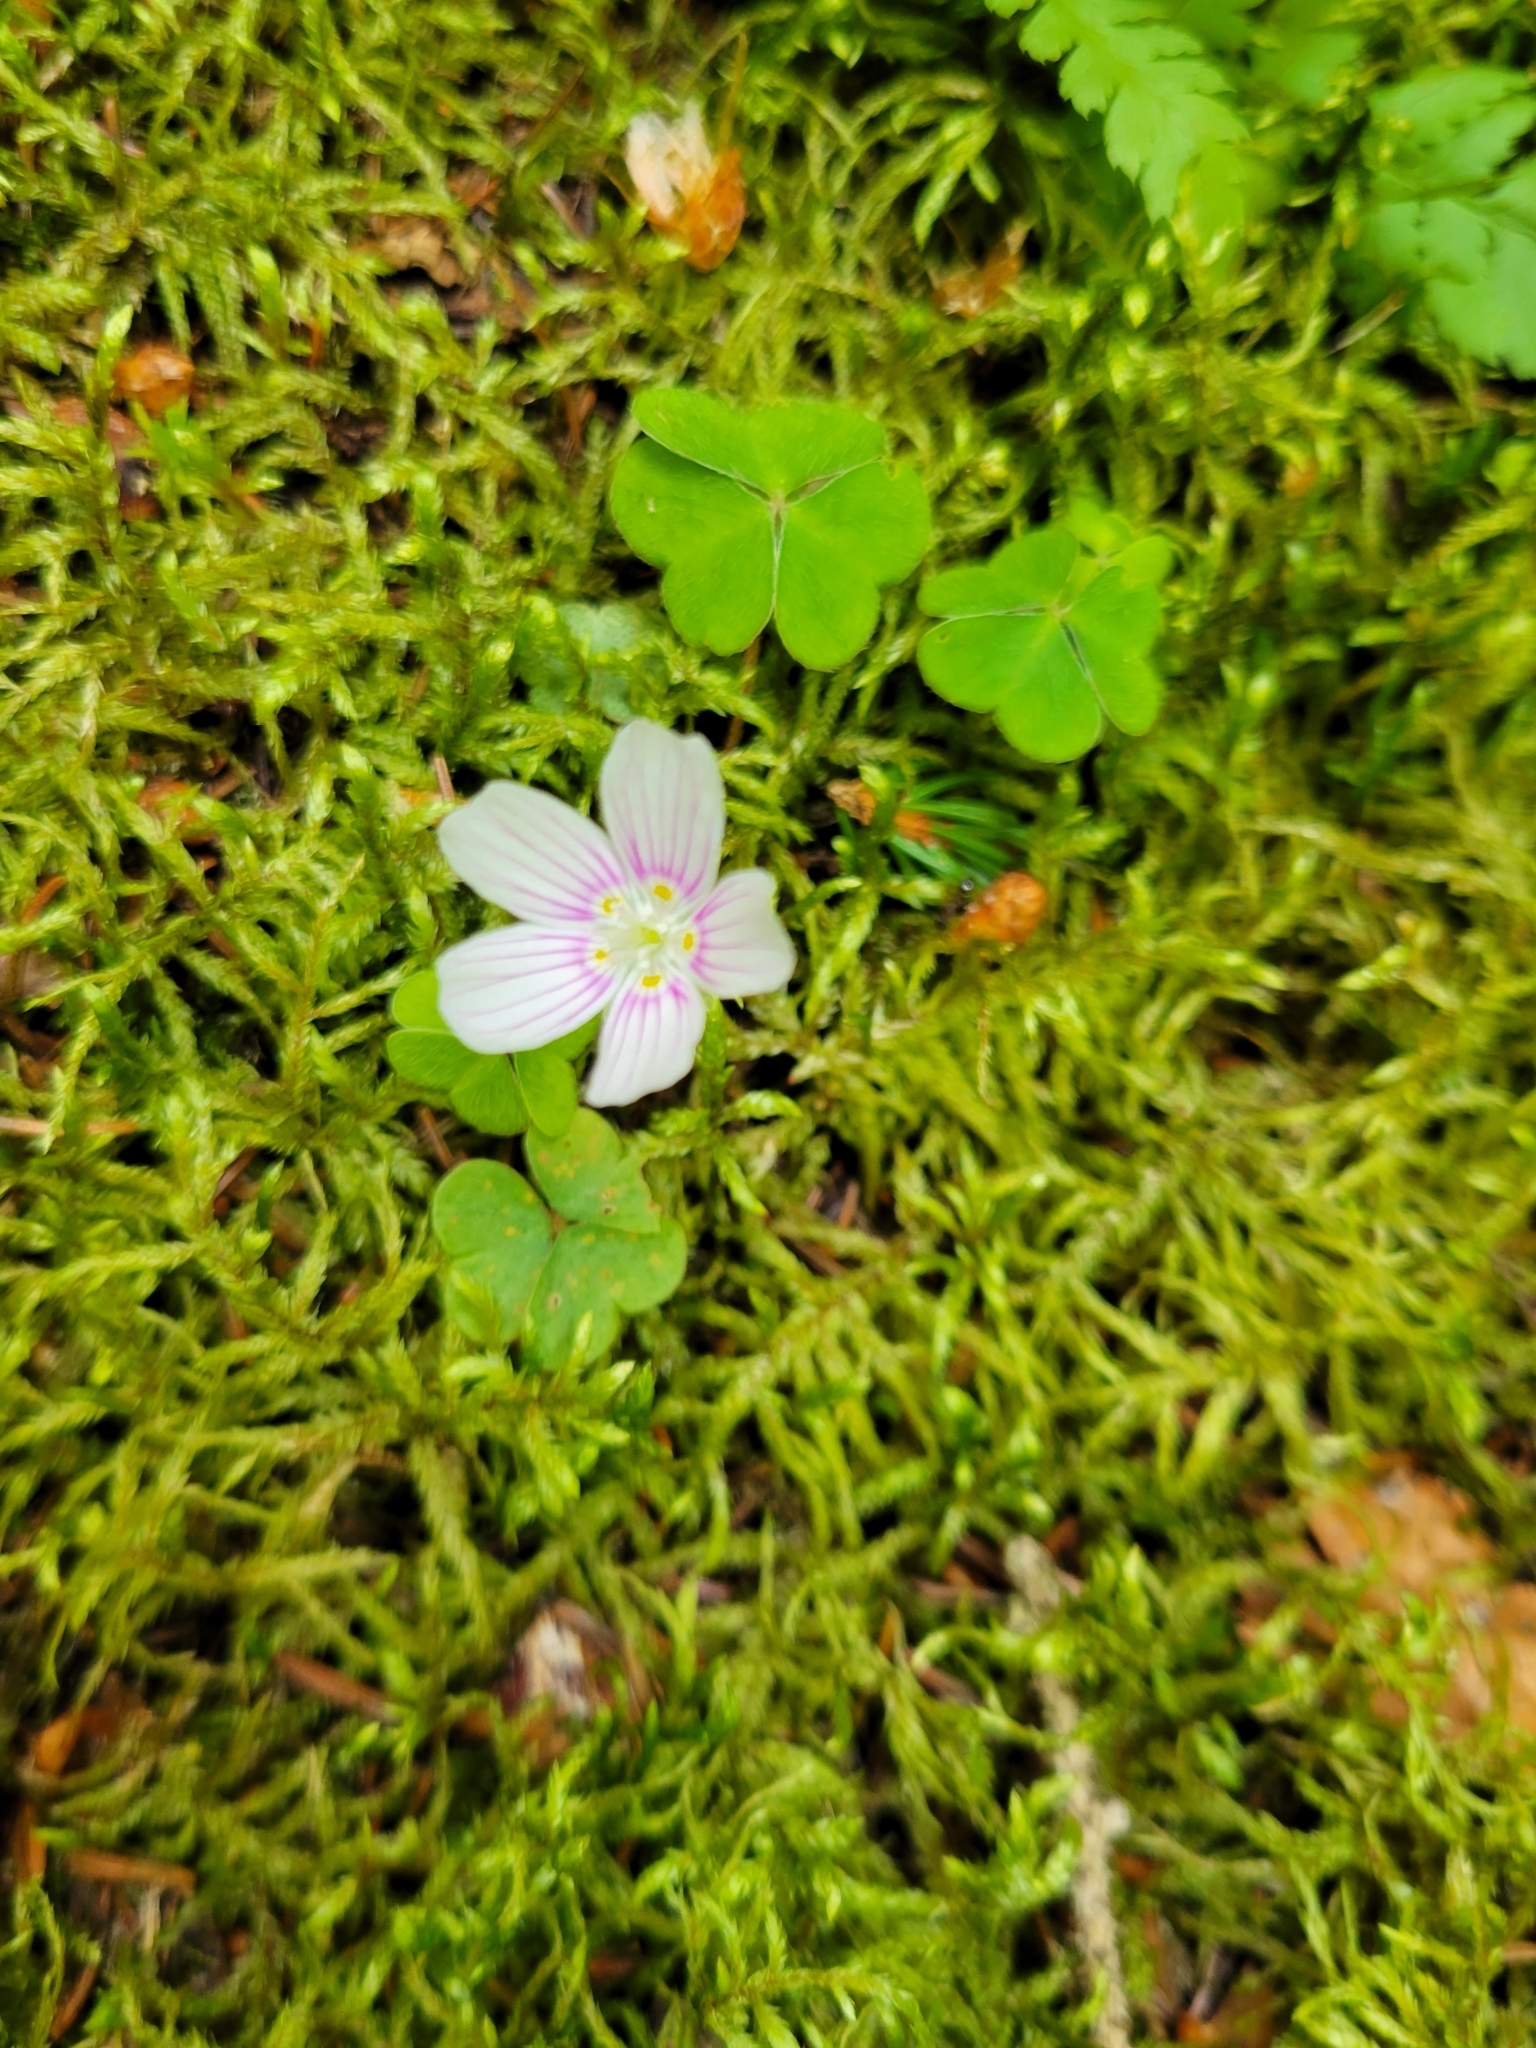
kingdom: Plantae
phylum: Tracheophyta
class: Magnoliopsida
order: Oxalidales
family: Oxalidaceae
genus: Oxalis
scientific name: Oxalis montana
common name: American wood-sorrel
